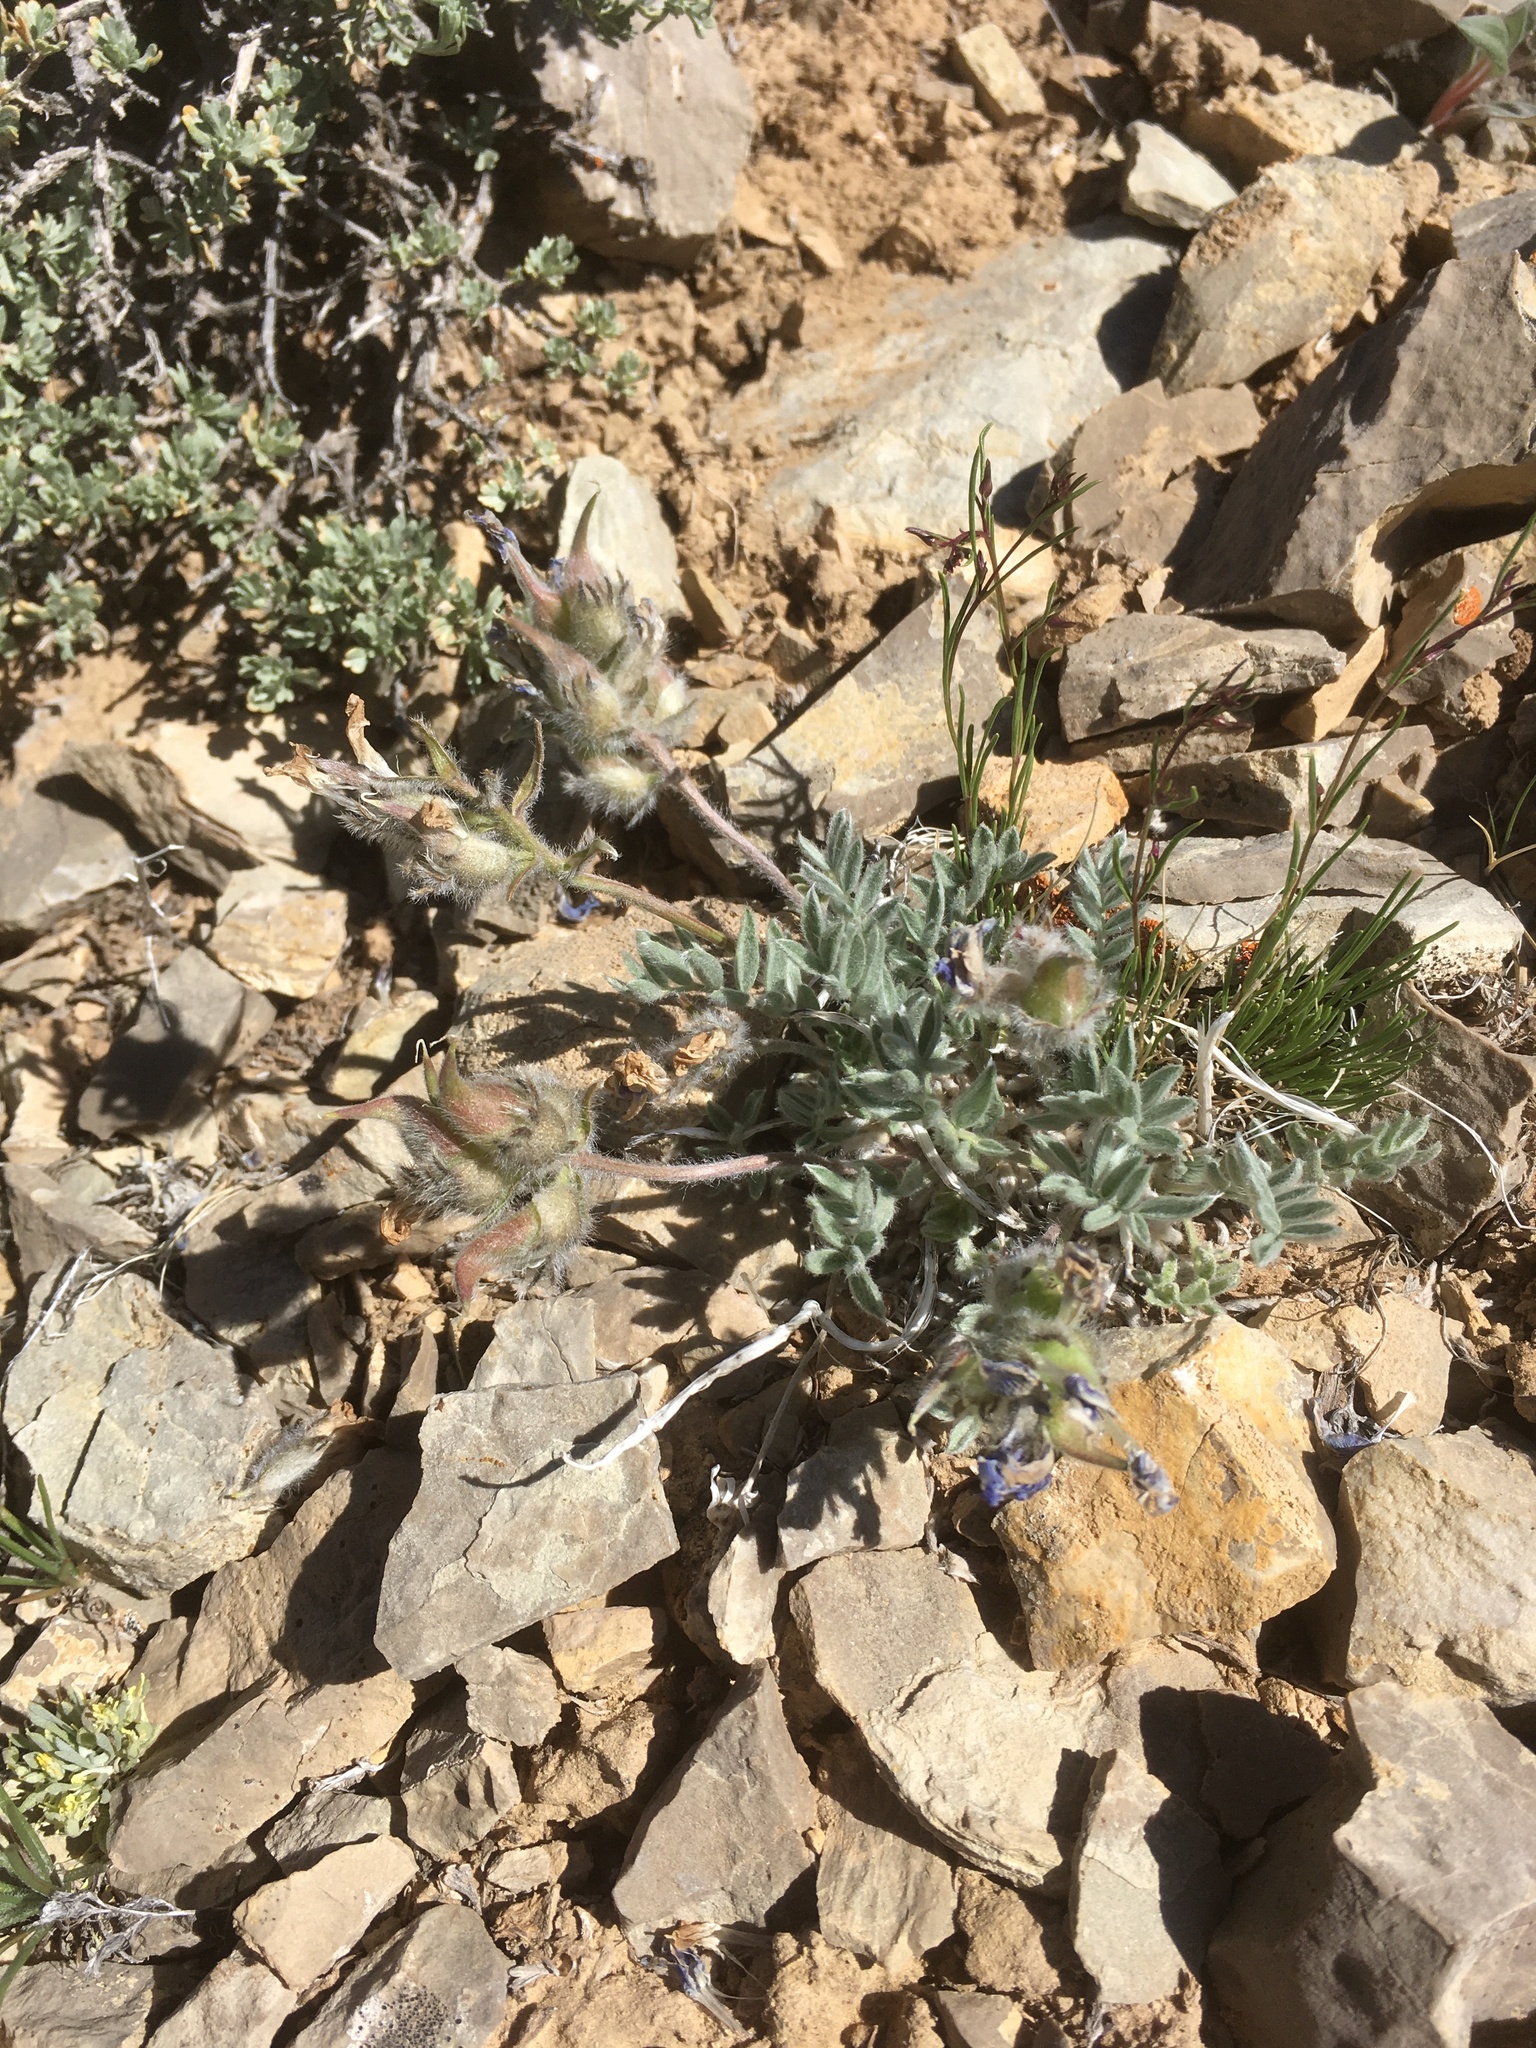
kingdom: Plantae
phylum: Tracheophyta
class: Magnoliopsida
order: Fabales
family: Fabaceae
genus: Oxytropis
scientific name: Oxytropis lagopus
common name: Hare's-foot locoweed
